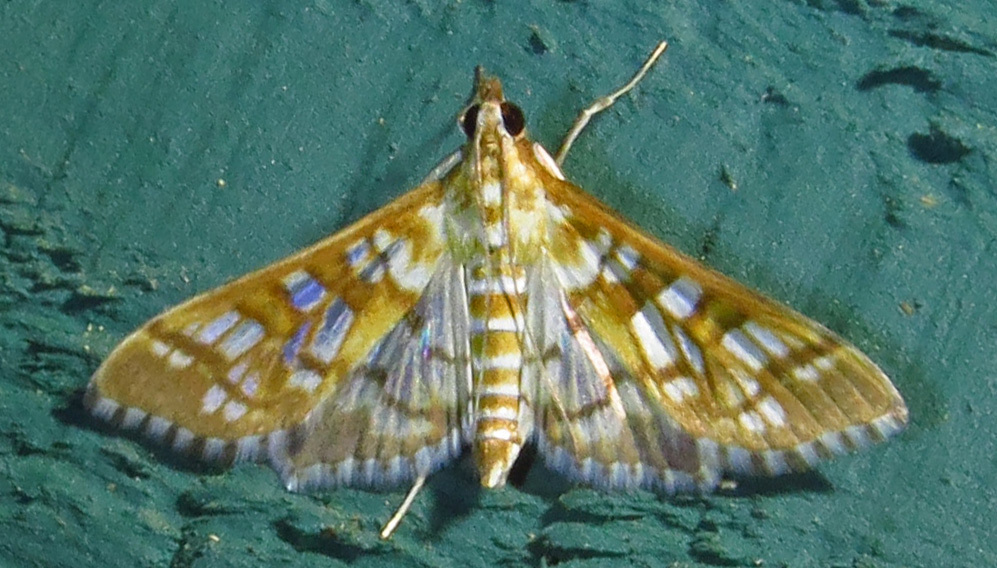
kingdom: Animalia
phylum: Arthropoda
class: Insecta
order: Lepidoptera
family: Crambidae
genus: Epipagis
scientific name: Epipagis fenestralis
